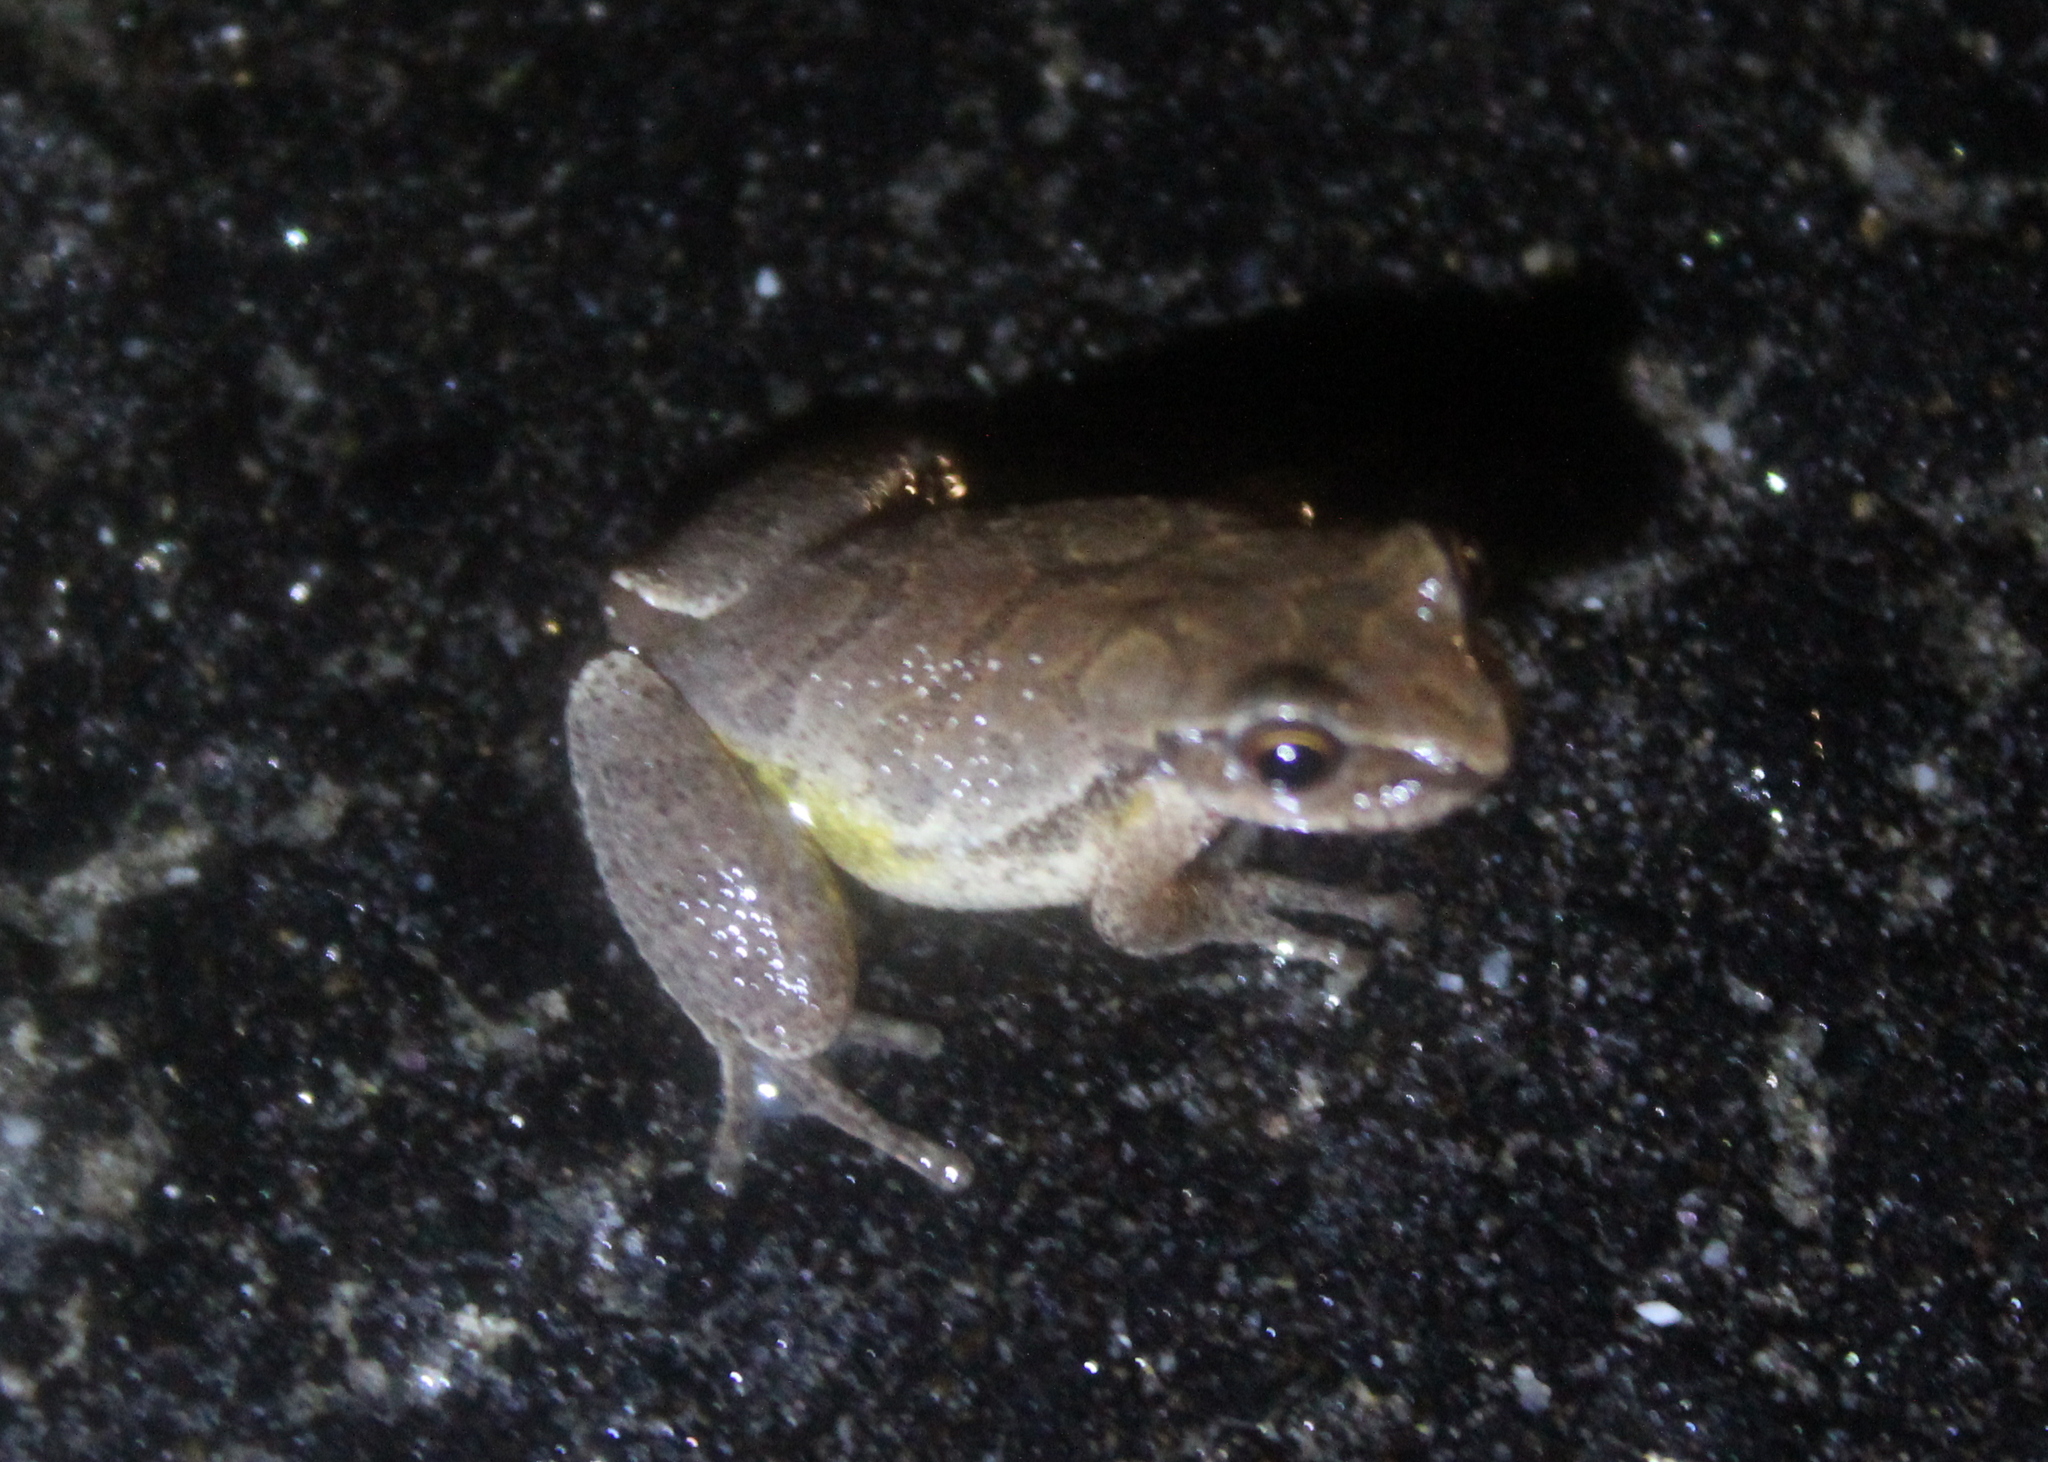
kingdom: Animalia
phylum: Chordata
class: Amphibia
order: Anura
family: Hylidae
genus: Pseudacris
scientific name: Pseudacris crucifer
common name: Spring peeper
